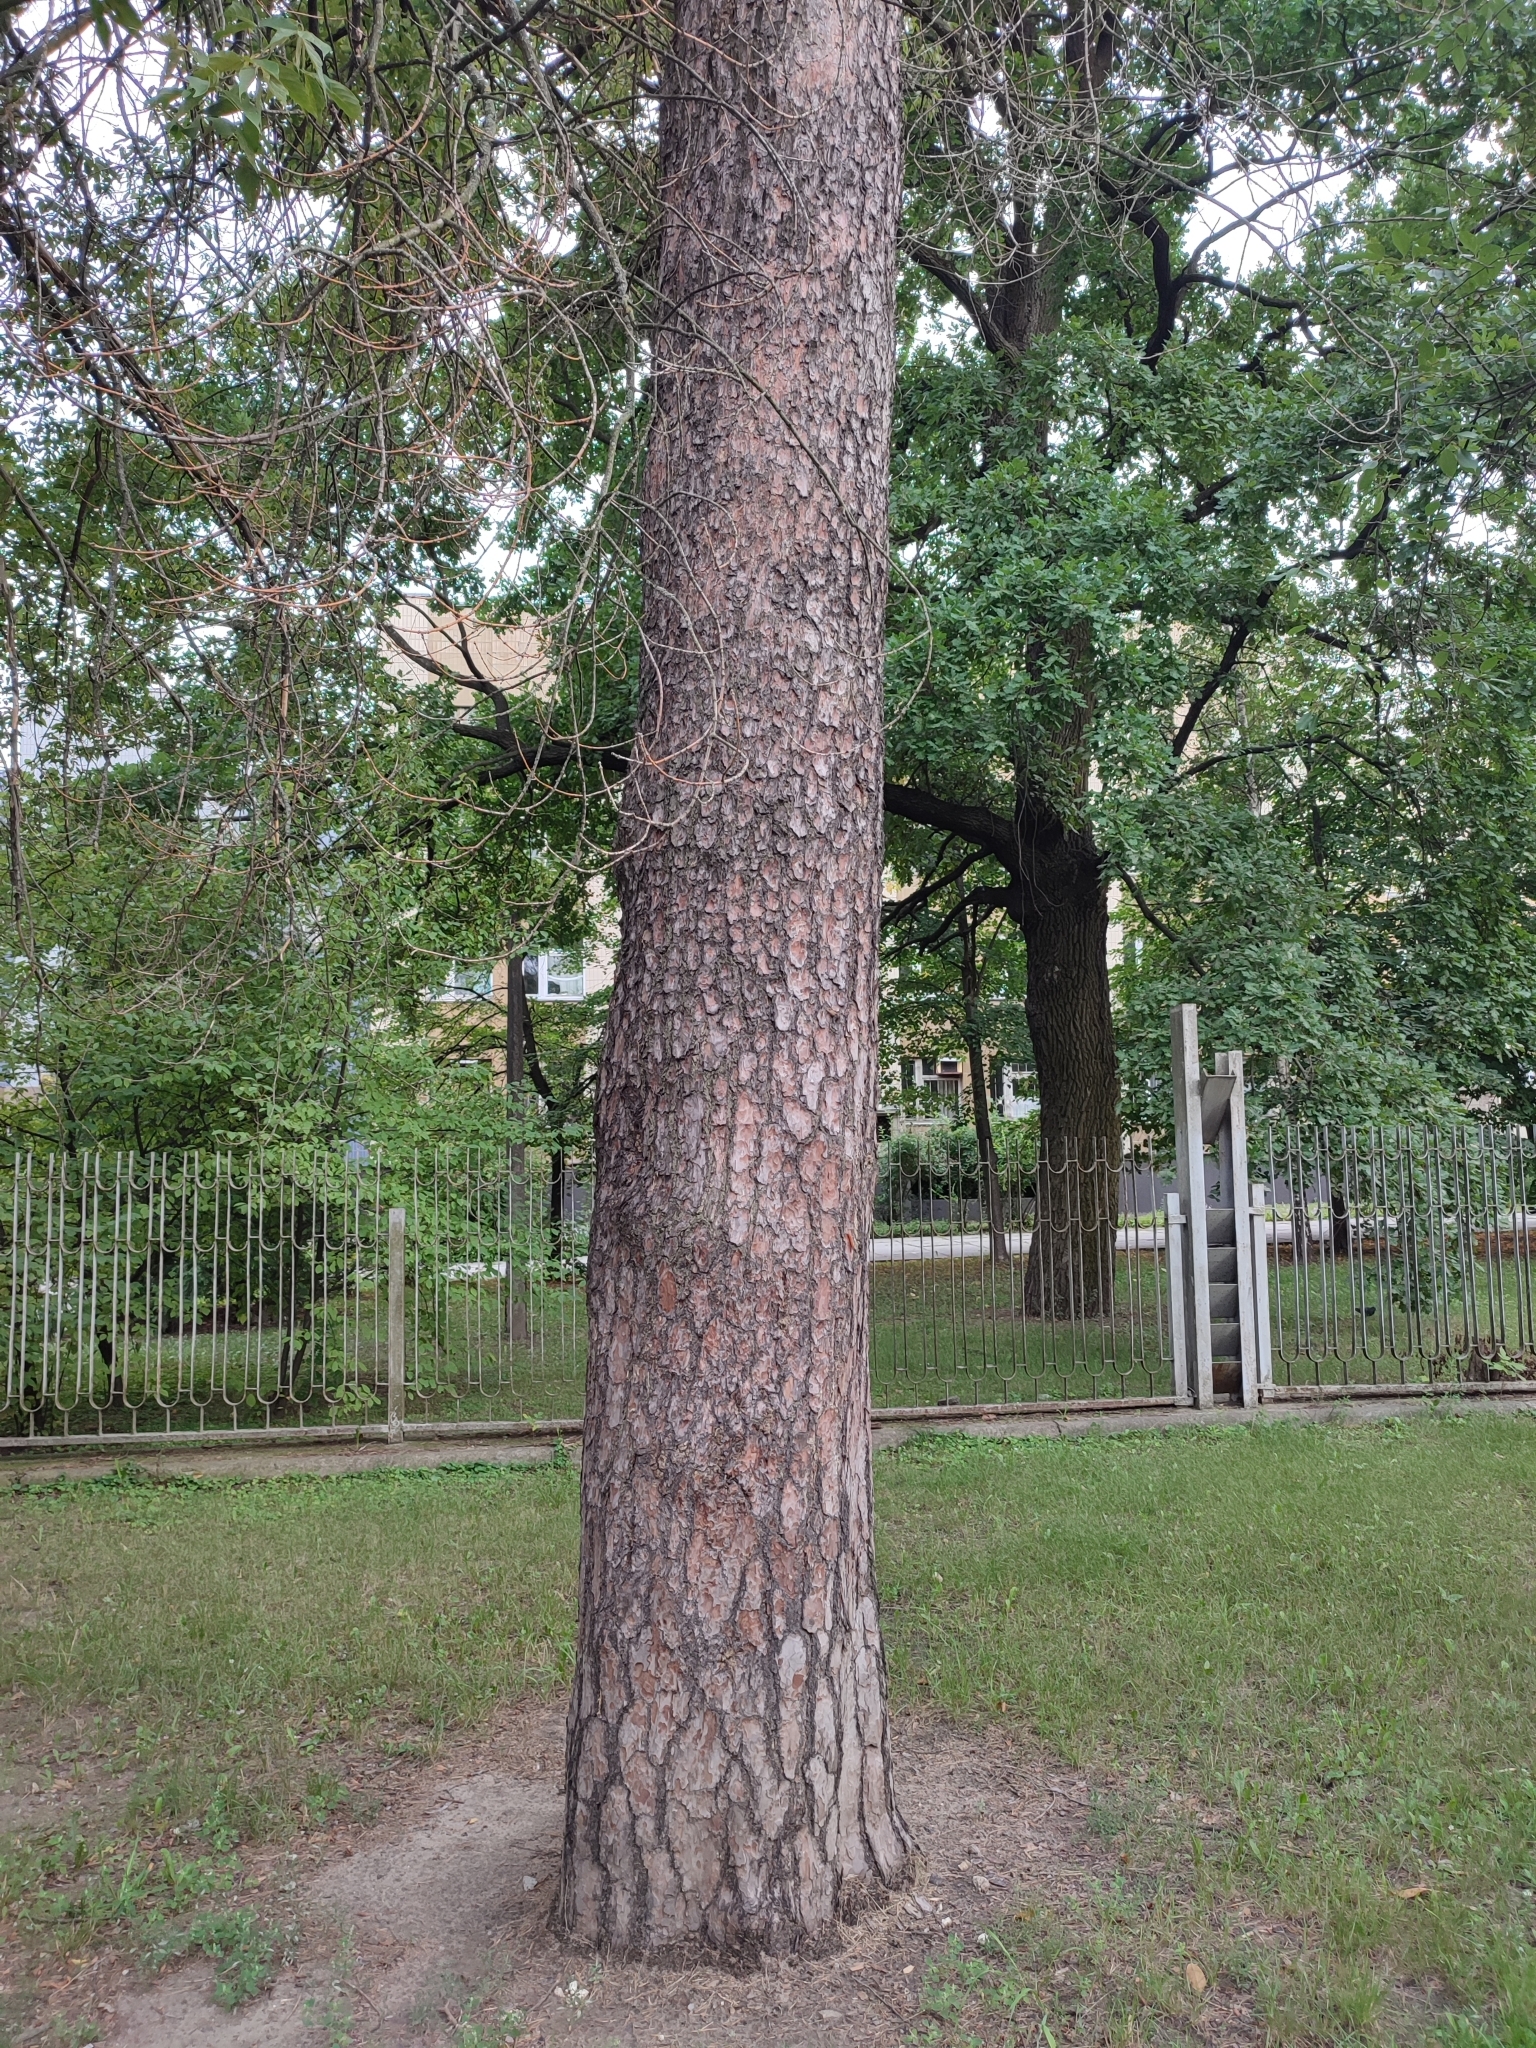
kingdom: Plantae
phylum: Tracheophyta
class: Pinopsida
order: Pinales
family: Pinaceae
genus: Pinus
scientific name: Pinus sylvestris
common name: Scots pine
